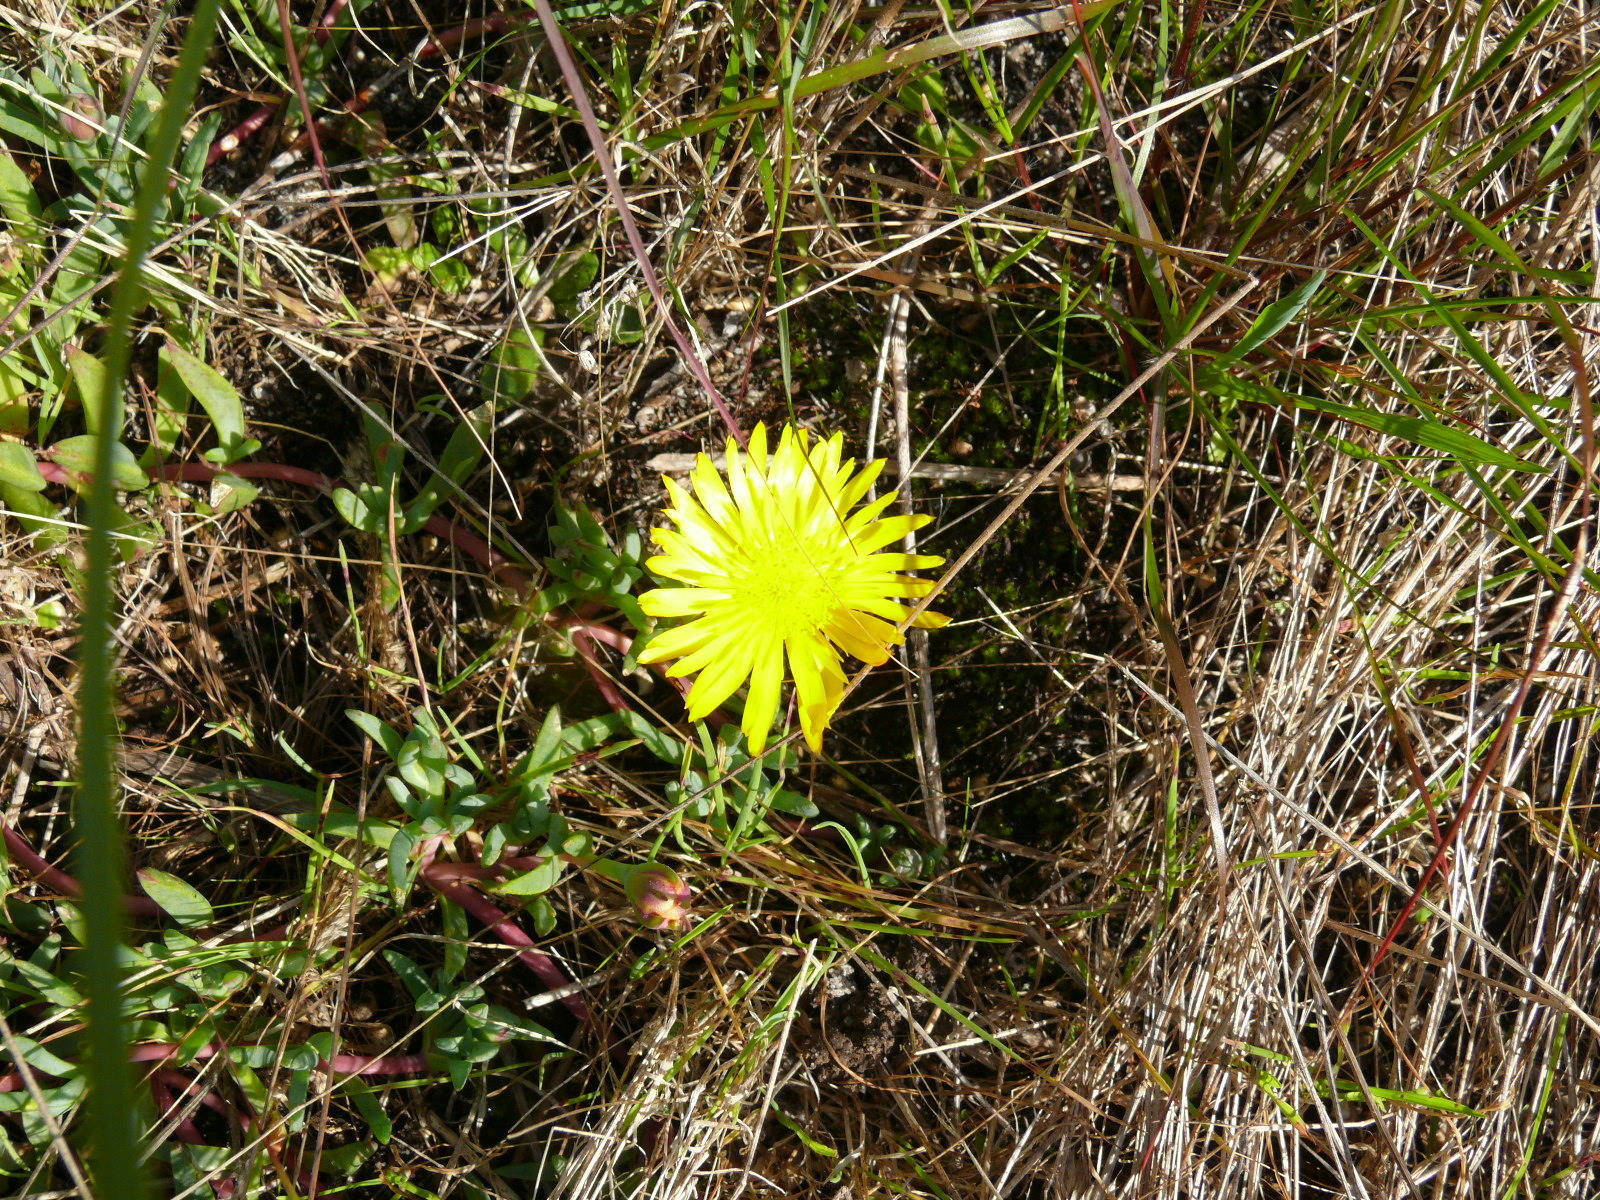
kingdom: Plantae
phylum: Tracheophyta
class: Magnoliopsida
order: Caryophyllales
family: Aizoaceae
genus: Lampranthus
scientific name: Lampranthus reptans
